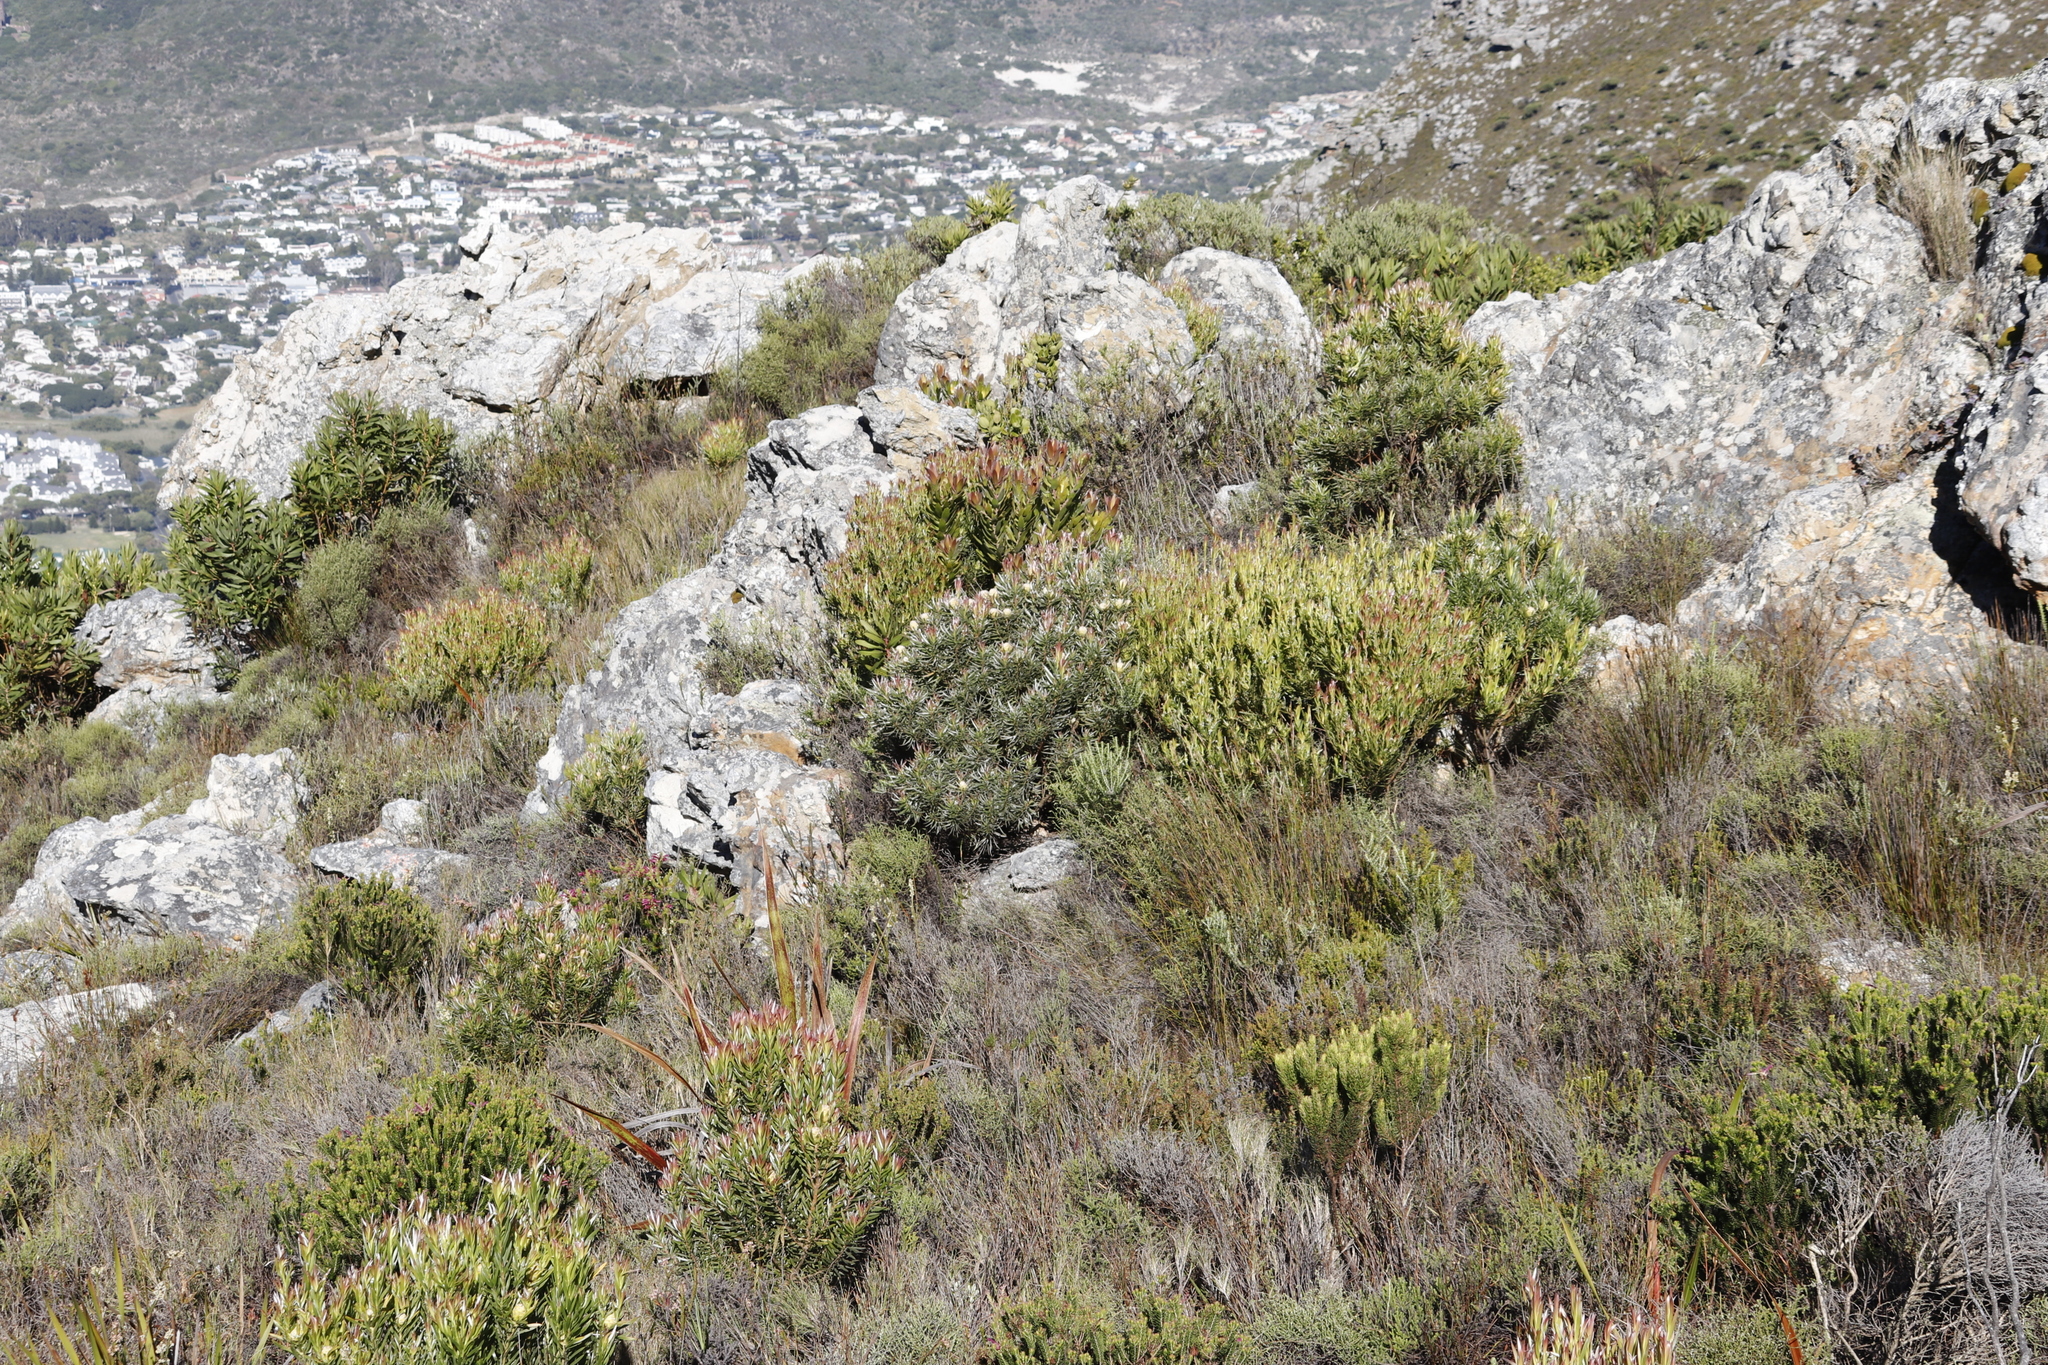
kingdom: Plantae
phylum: Tracheophyta
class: Magnoliopsida
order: Proteales
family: Proteaceae
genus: Leucadendron
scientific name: Leucadendron xanthoconus
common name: Sickle-leaf conebush
